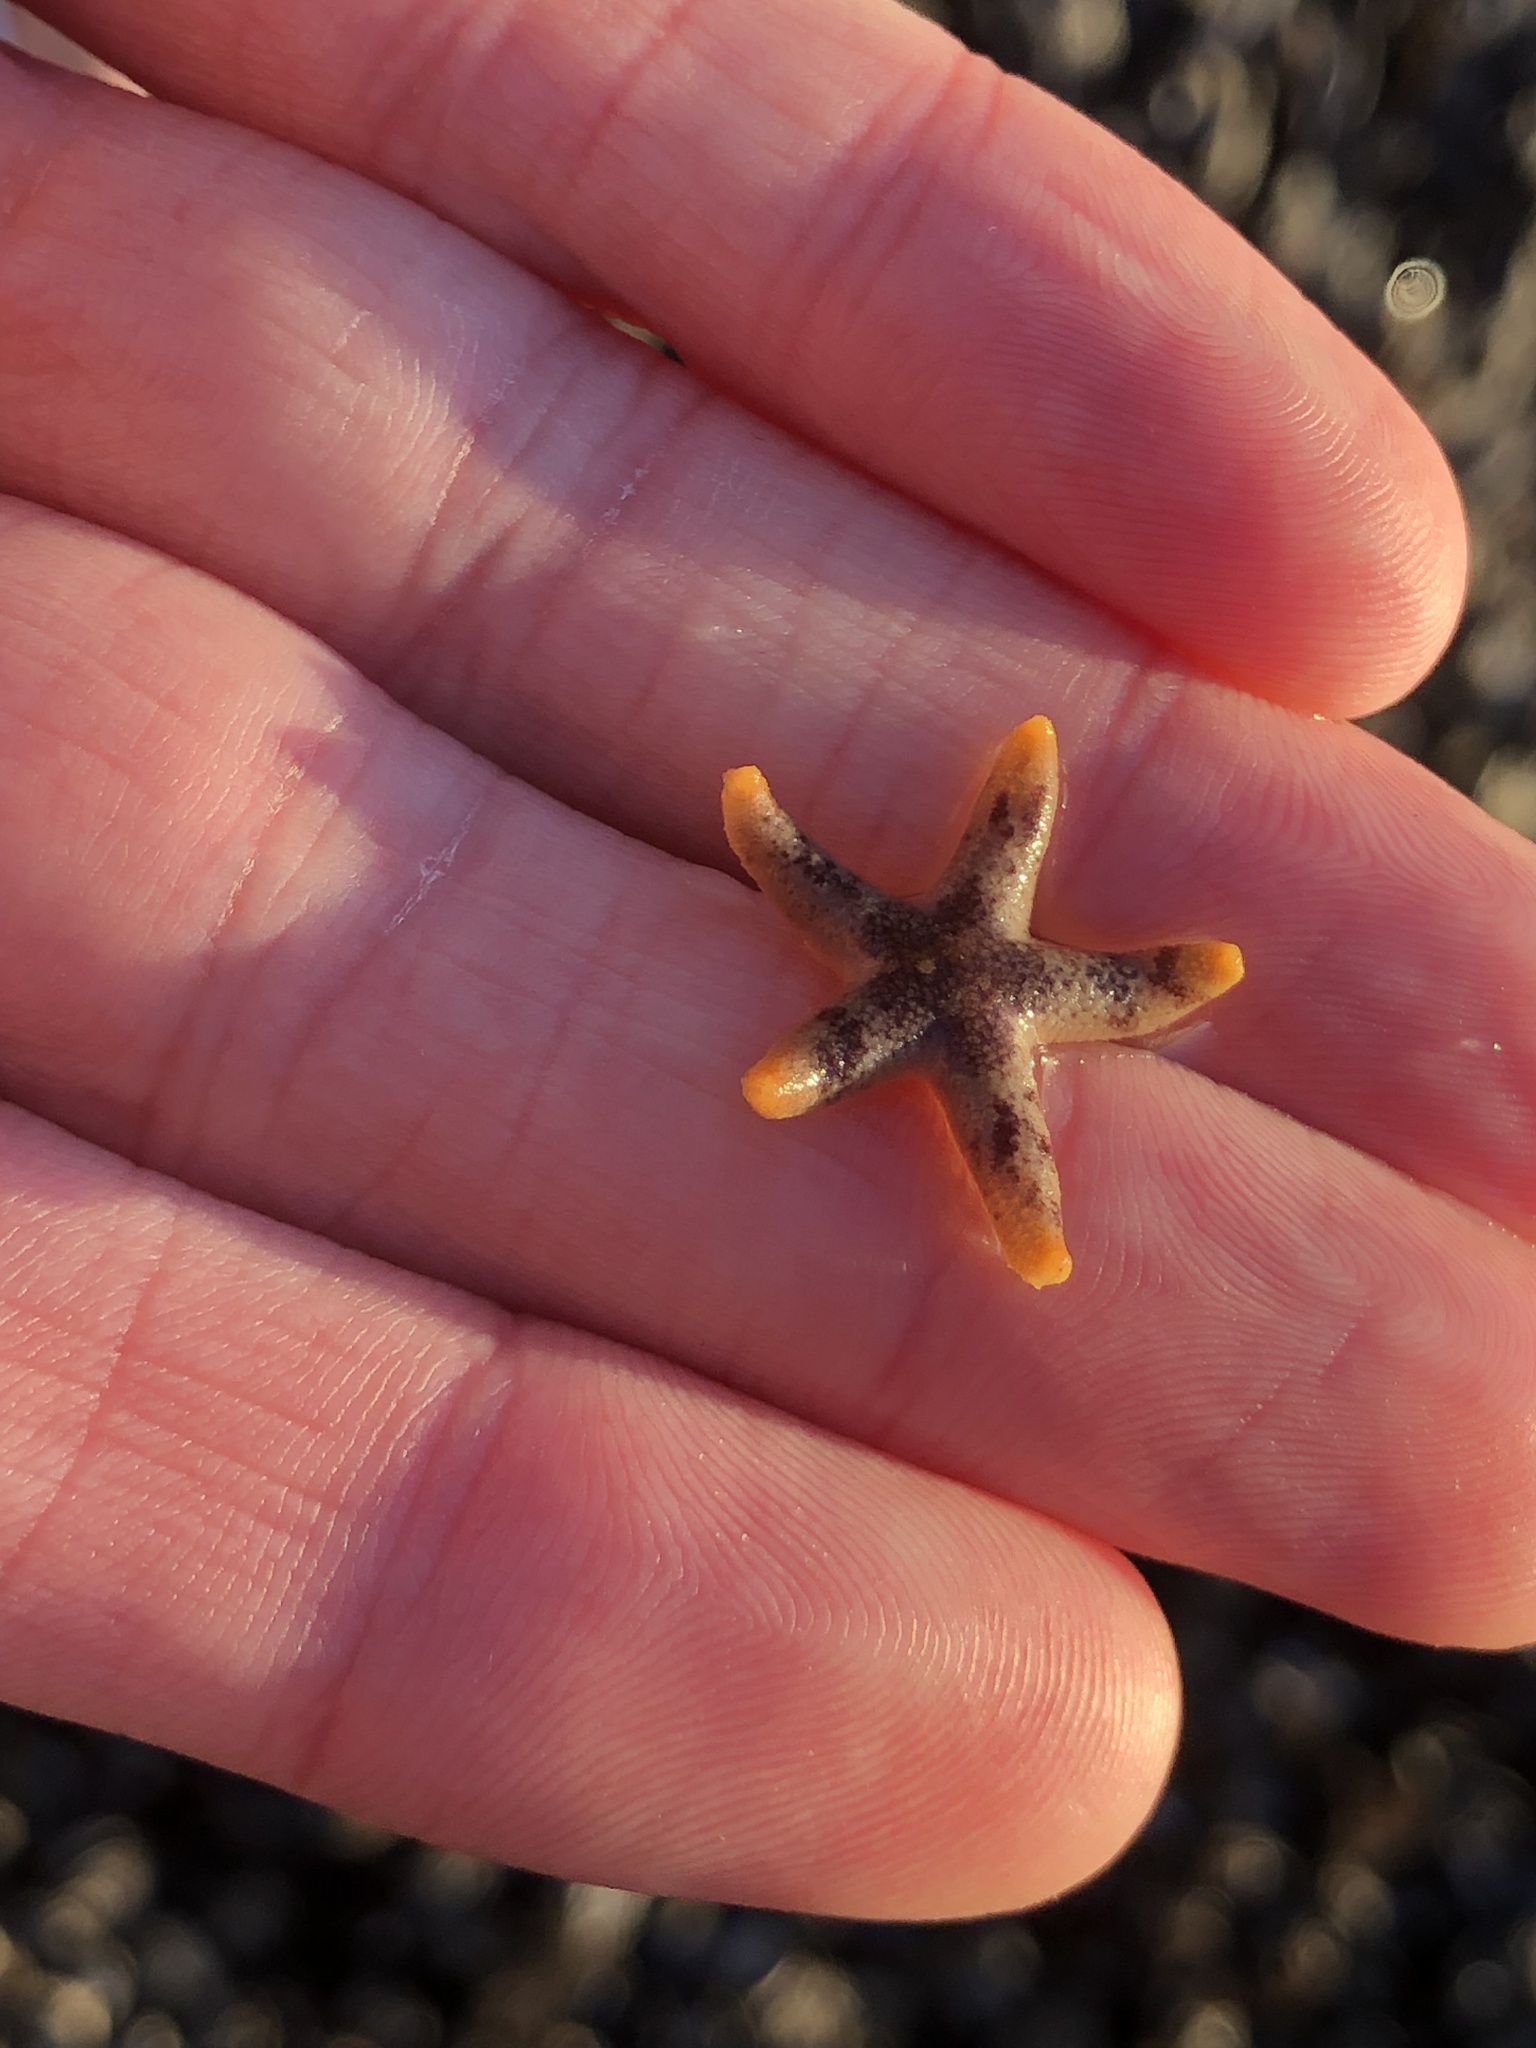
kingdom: Animalia
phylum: Echinodermata
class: Asteroidea
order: Spinulosida
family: Echinasteridae
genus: Henricia
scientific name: Henricia pumila
